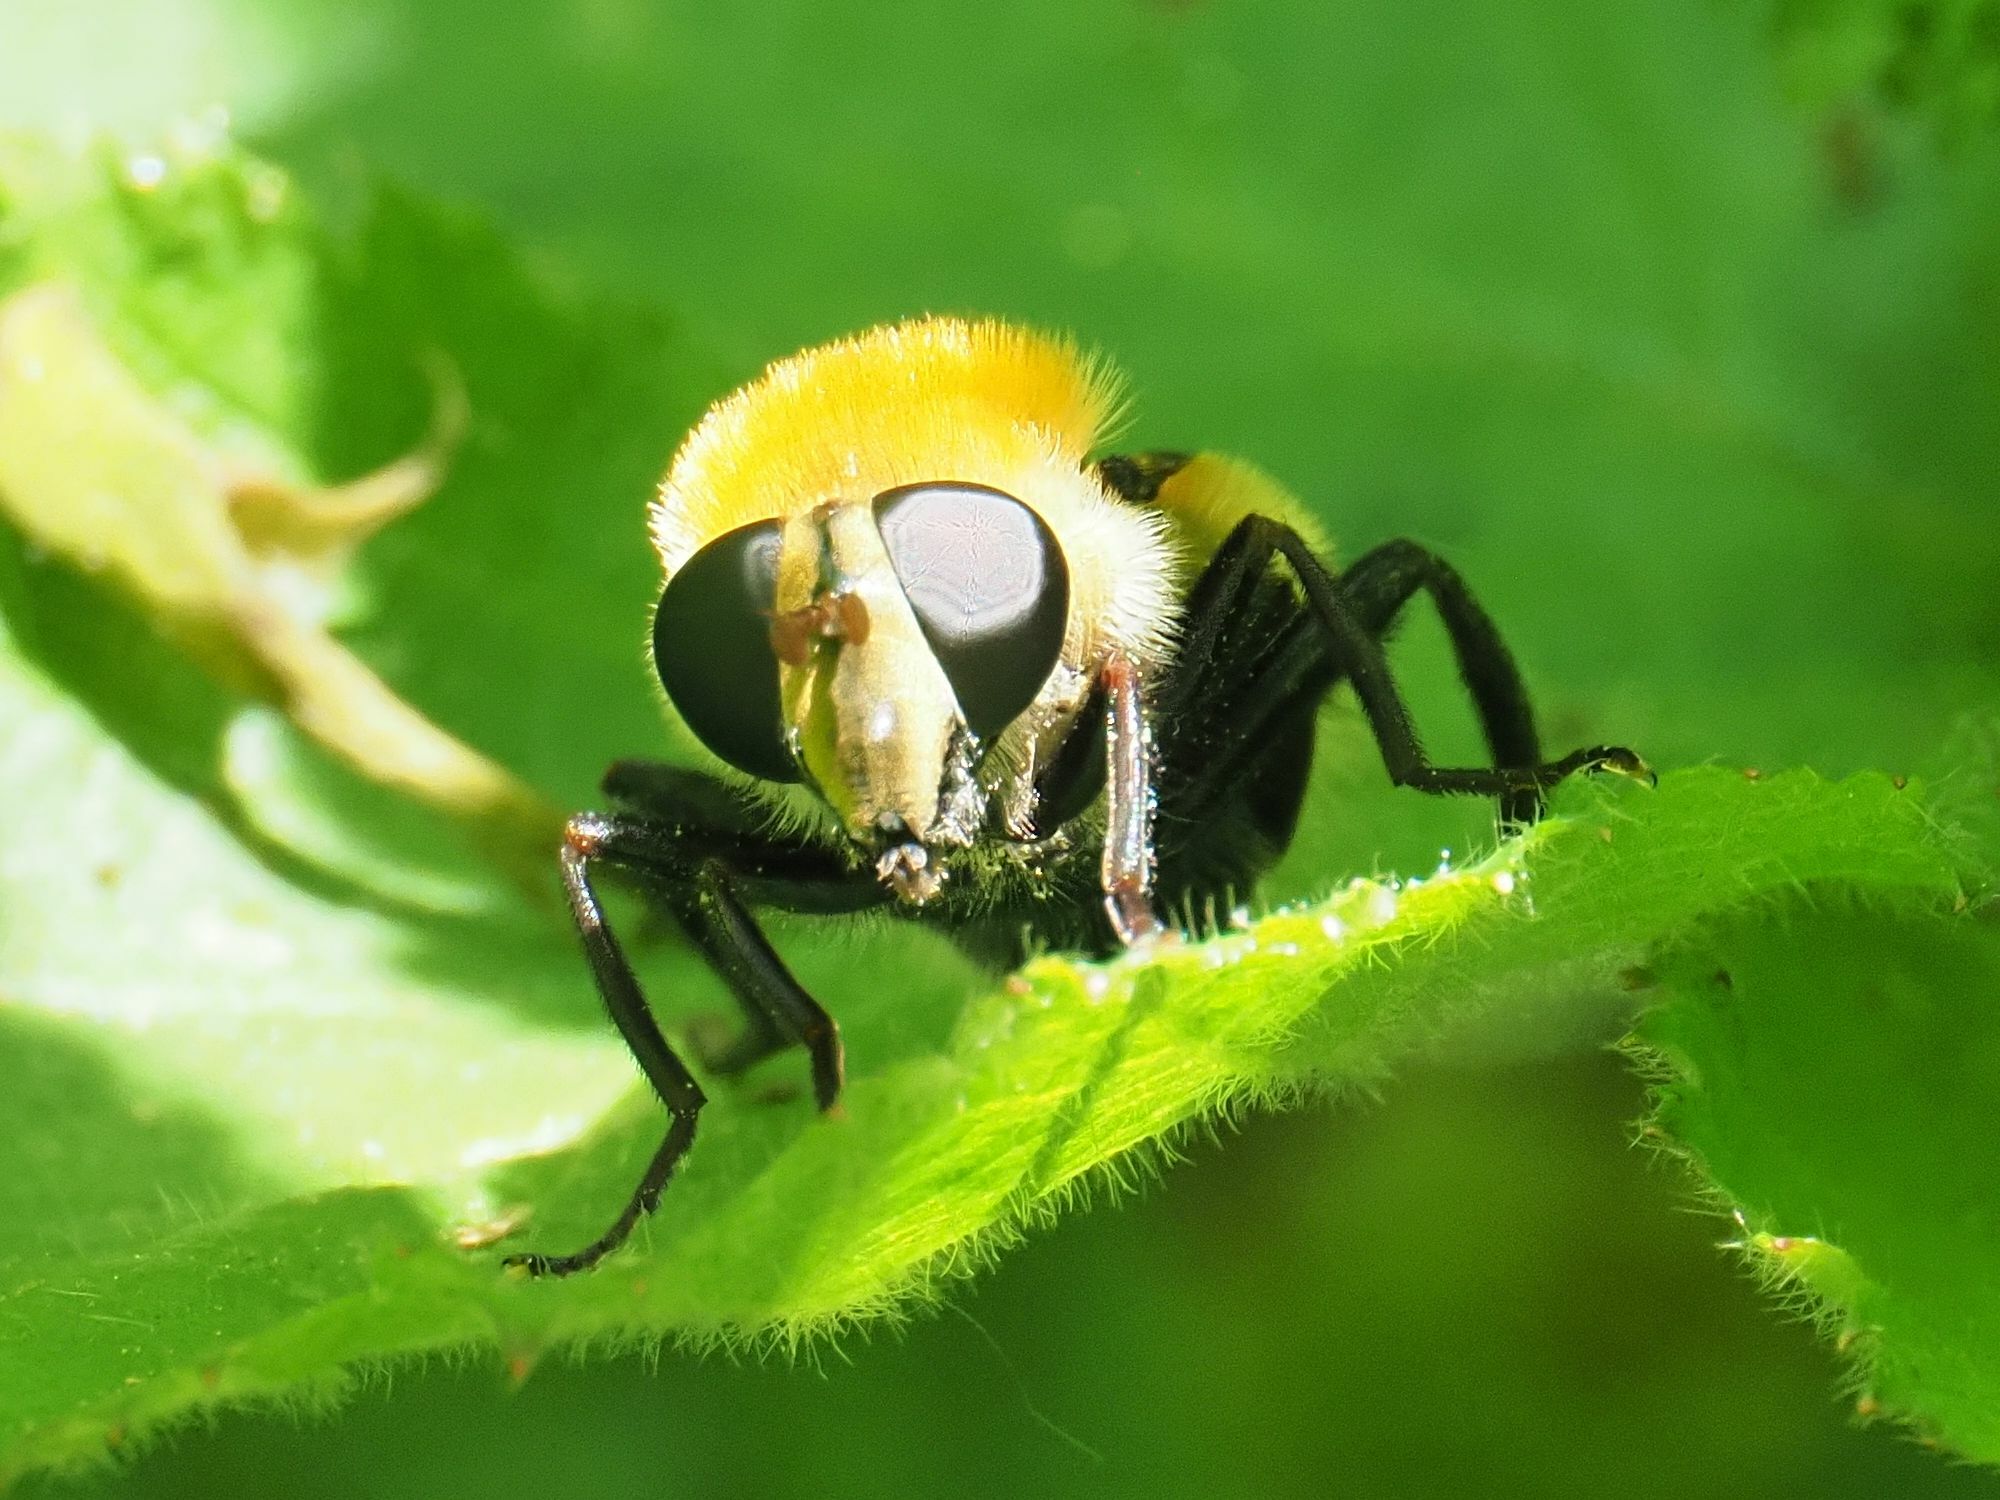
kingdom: Animalia
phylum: Arthropoda
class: Insecta
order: Diptera
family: Syrphidae
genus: Criorhina
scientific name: Criorhina berberina
